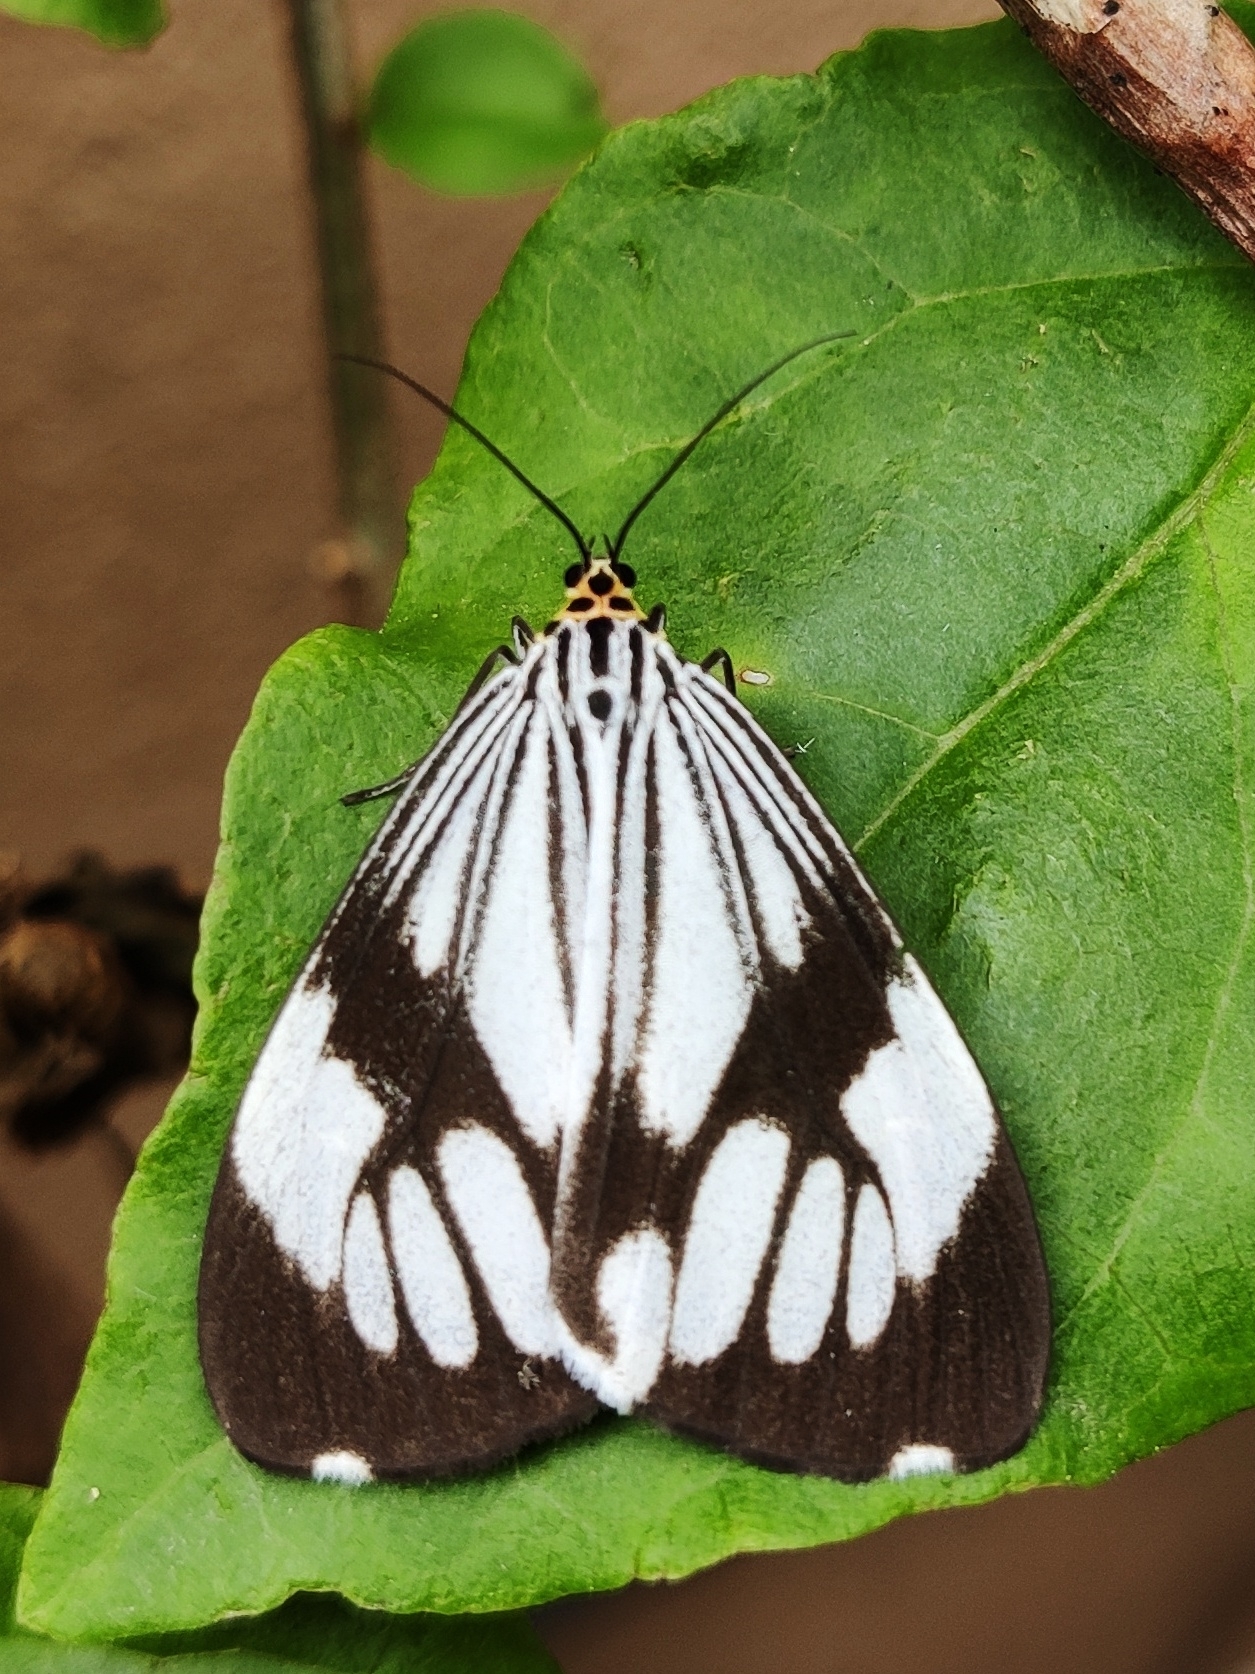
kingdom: Animalia
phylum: Arthropoda
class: Insecta
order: Lepidoptera
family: Erebidae
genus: Nyctemera
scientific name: Nyctemera coleta
